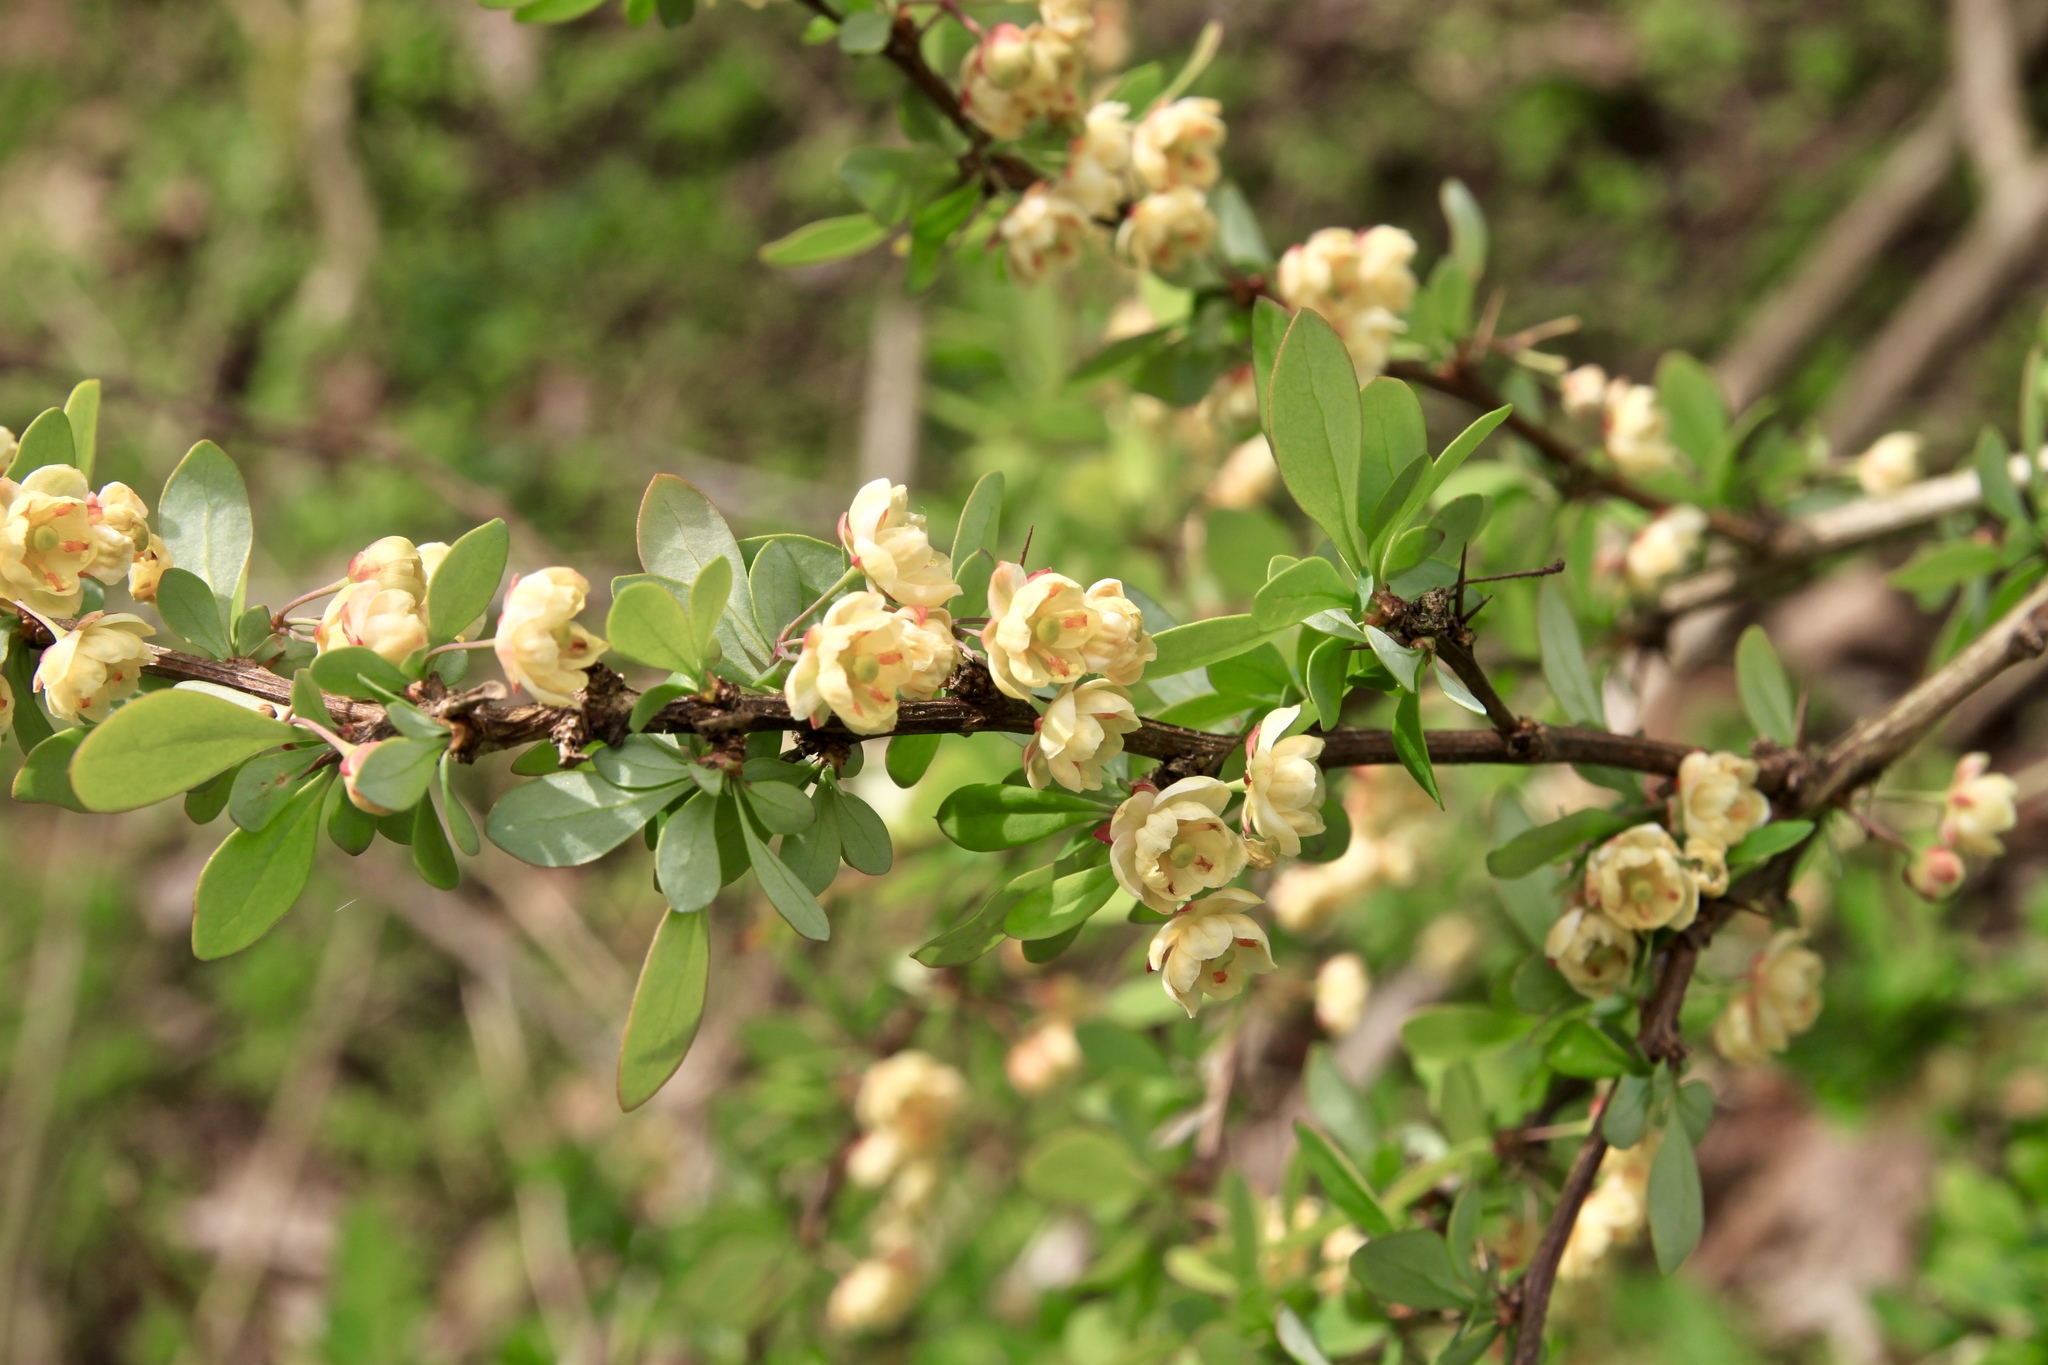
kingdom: Plantae
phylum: Tracheophyta
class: Magnoliopsida
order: Ranunculales
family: Berberidaceae
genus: Berberis
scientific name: Berberis thunbergii
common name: Japanese barberry
